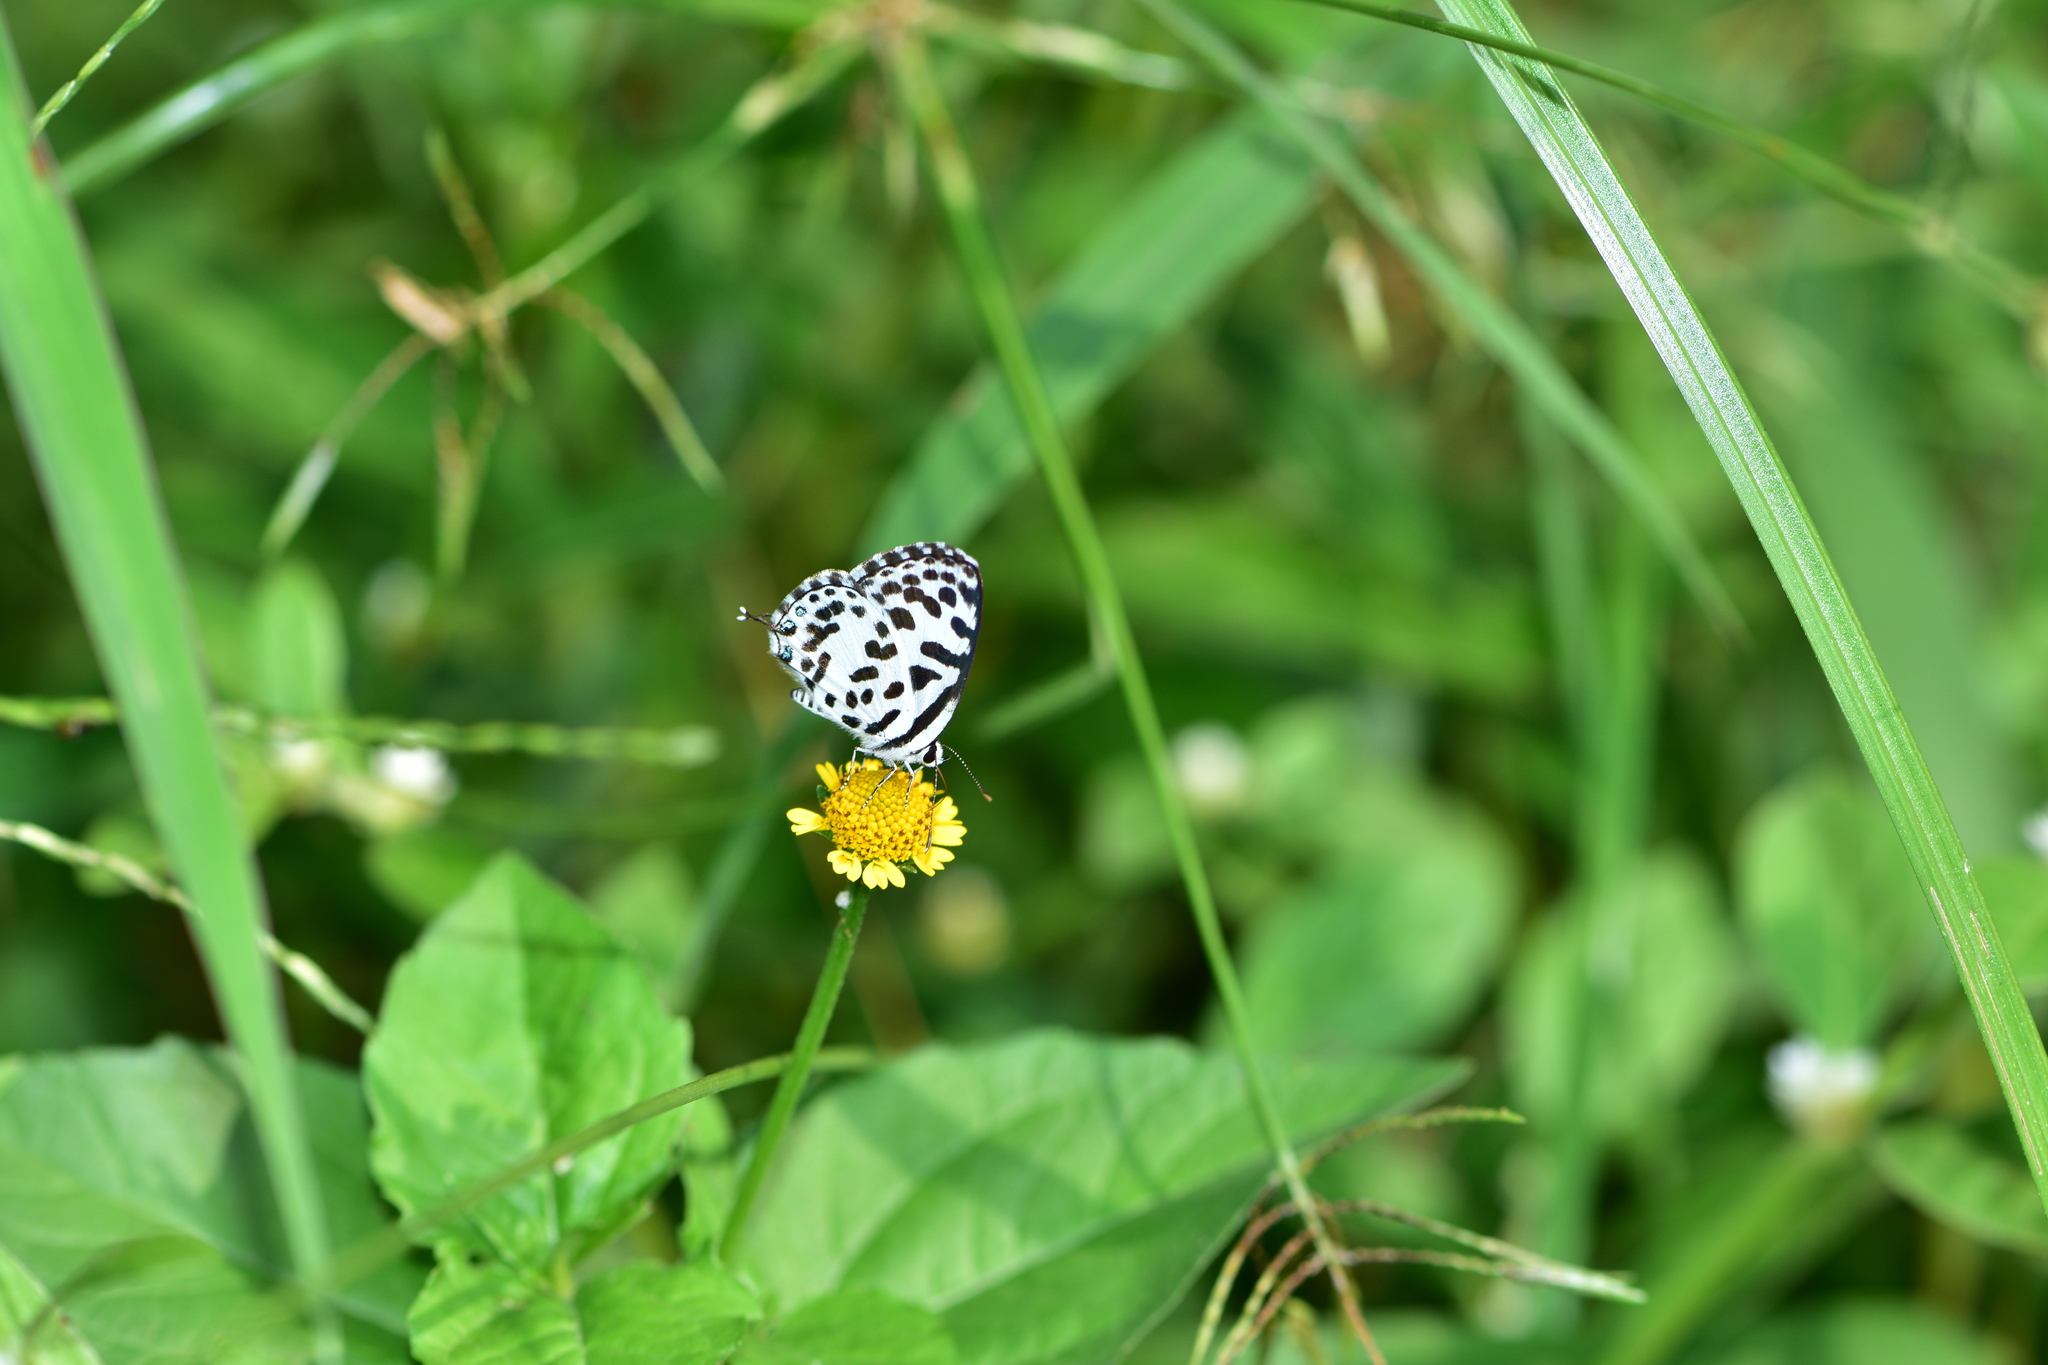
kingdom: Animalia
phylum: Arthropoda
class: Insecta
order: Lepidoptera
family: Lycaenidae
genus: Castalius
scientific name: Castalius rosimon
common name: Common pierrot
